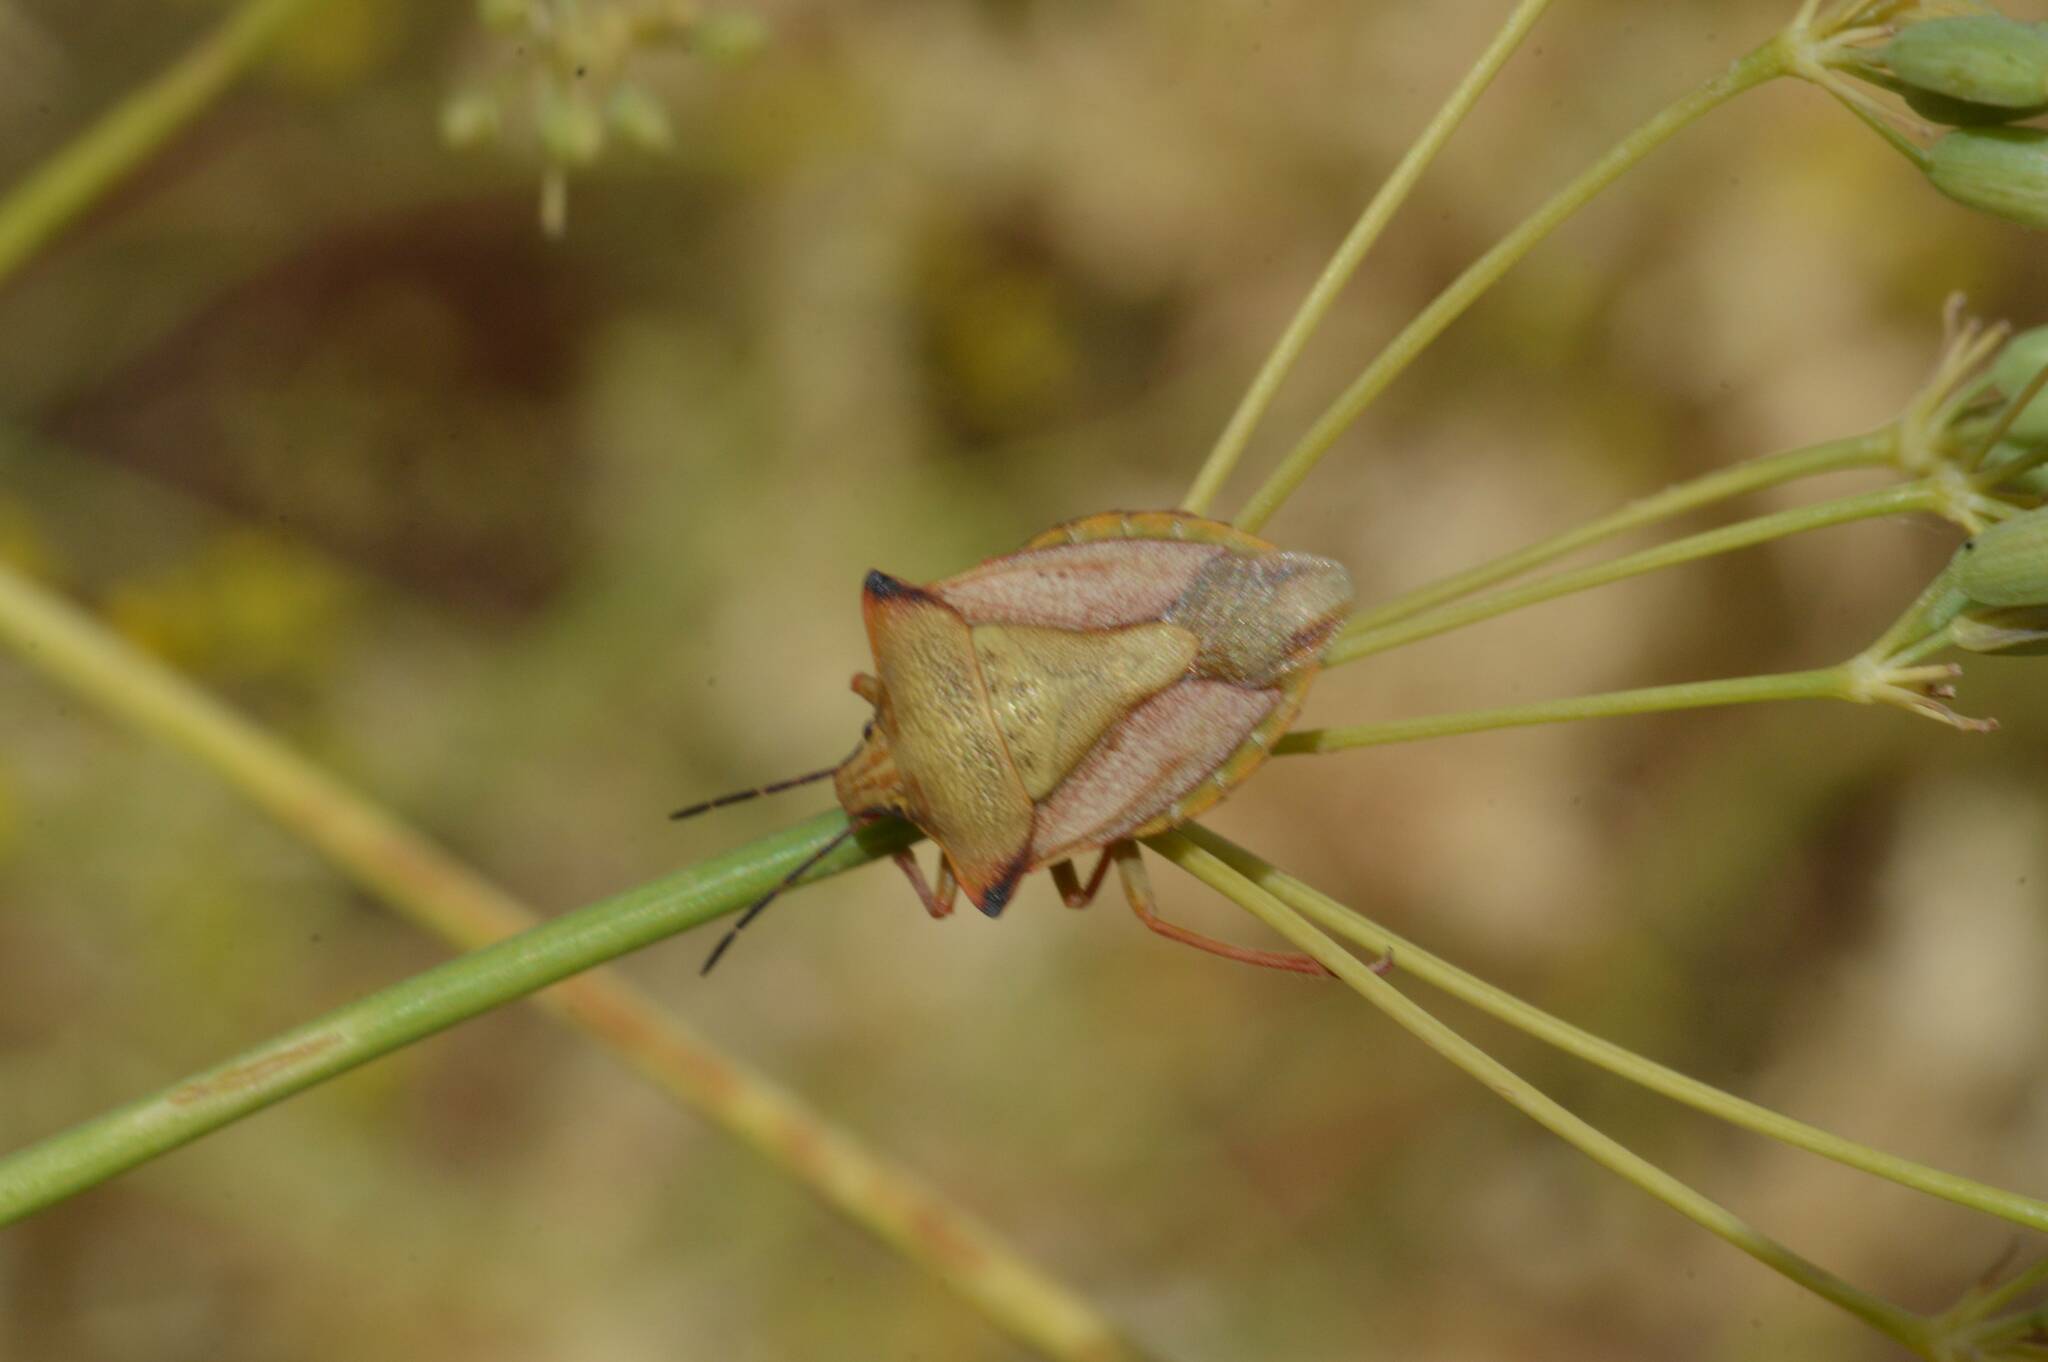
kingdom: Animalia
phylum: Arthropoda
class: Insecta
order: Hemiptera
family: Pentatomidae
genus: Carpocoris
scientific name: Carpocoris mediterraneus
